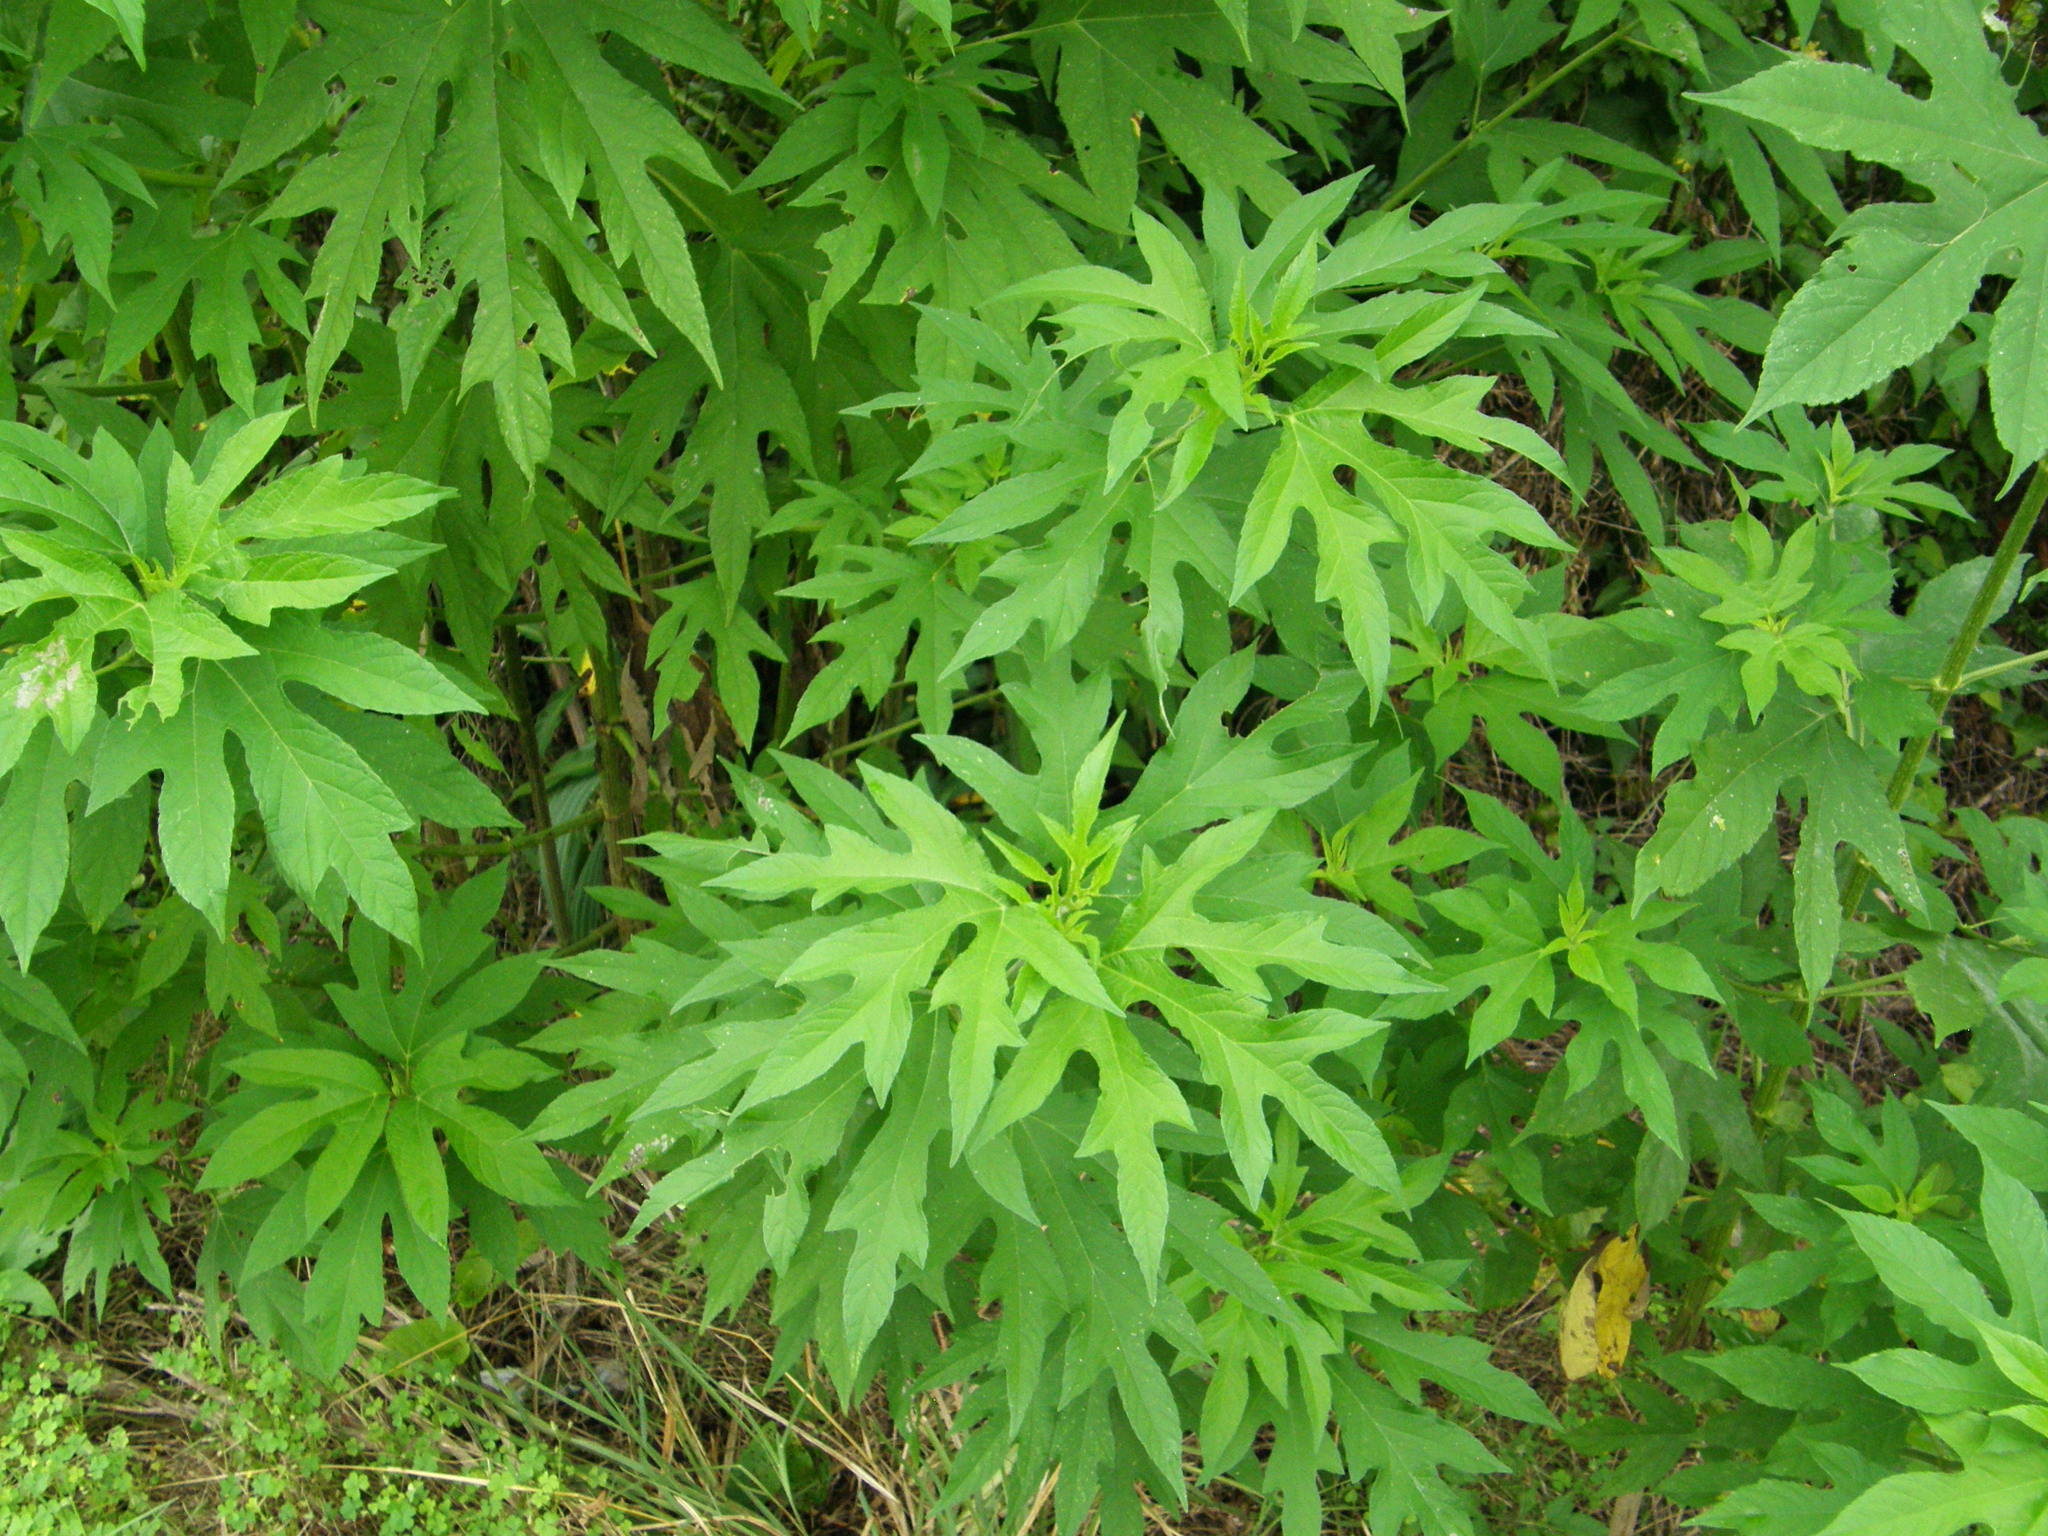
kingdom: Plantae
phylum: Tracheophyta
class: Magnoliopsida
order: Asterales
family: Asteraceae
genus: Ambrosia
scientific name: Ambrosia trifida
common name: Giant ragweed
